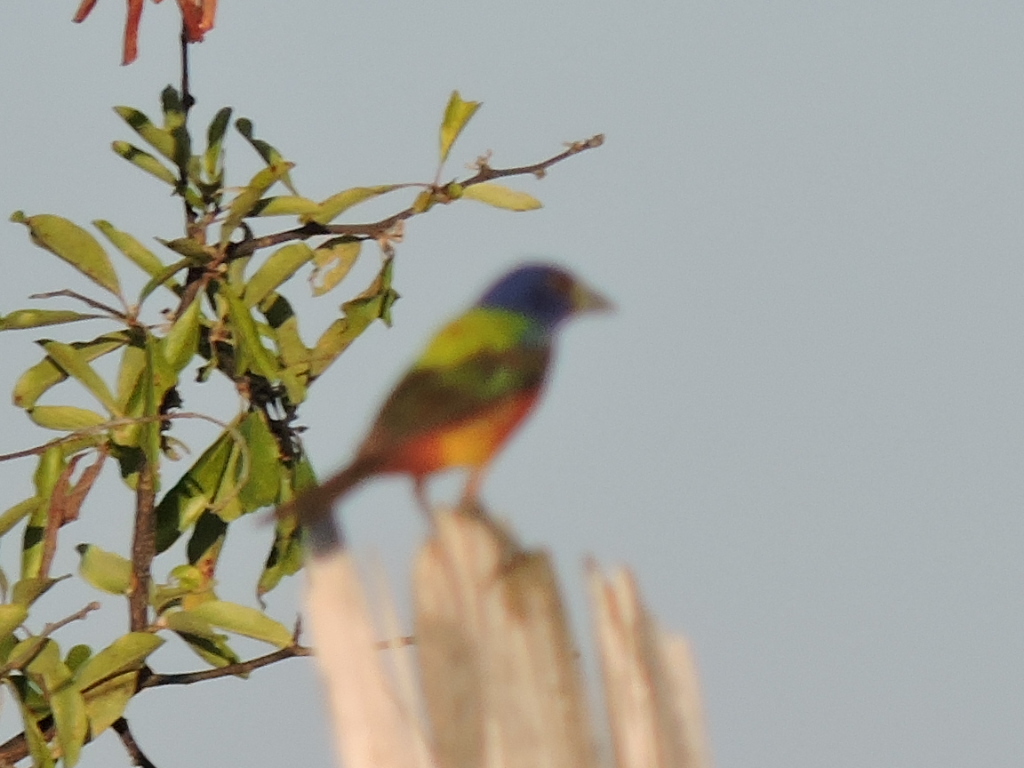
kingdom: Animalia
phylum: Chordata
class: Aves
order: Passeriformes
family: Cardinalidae
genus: Passerina
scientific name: Passerina ciris
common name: Painted bunting
